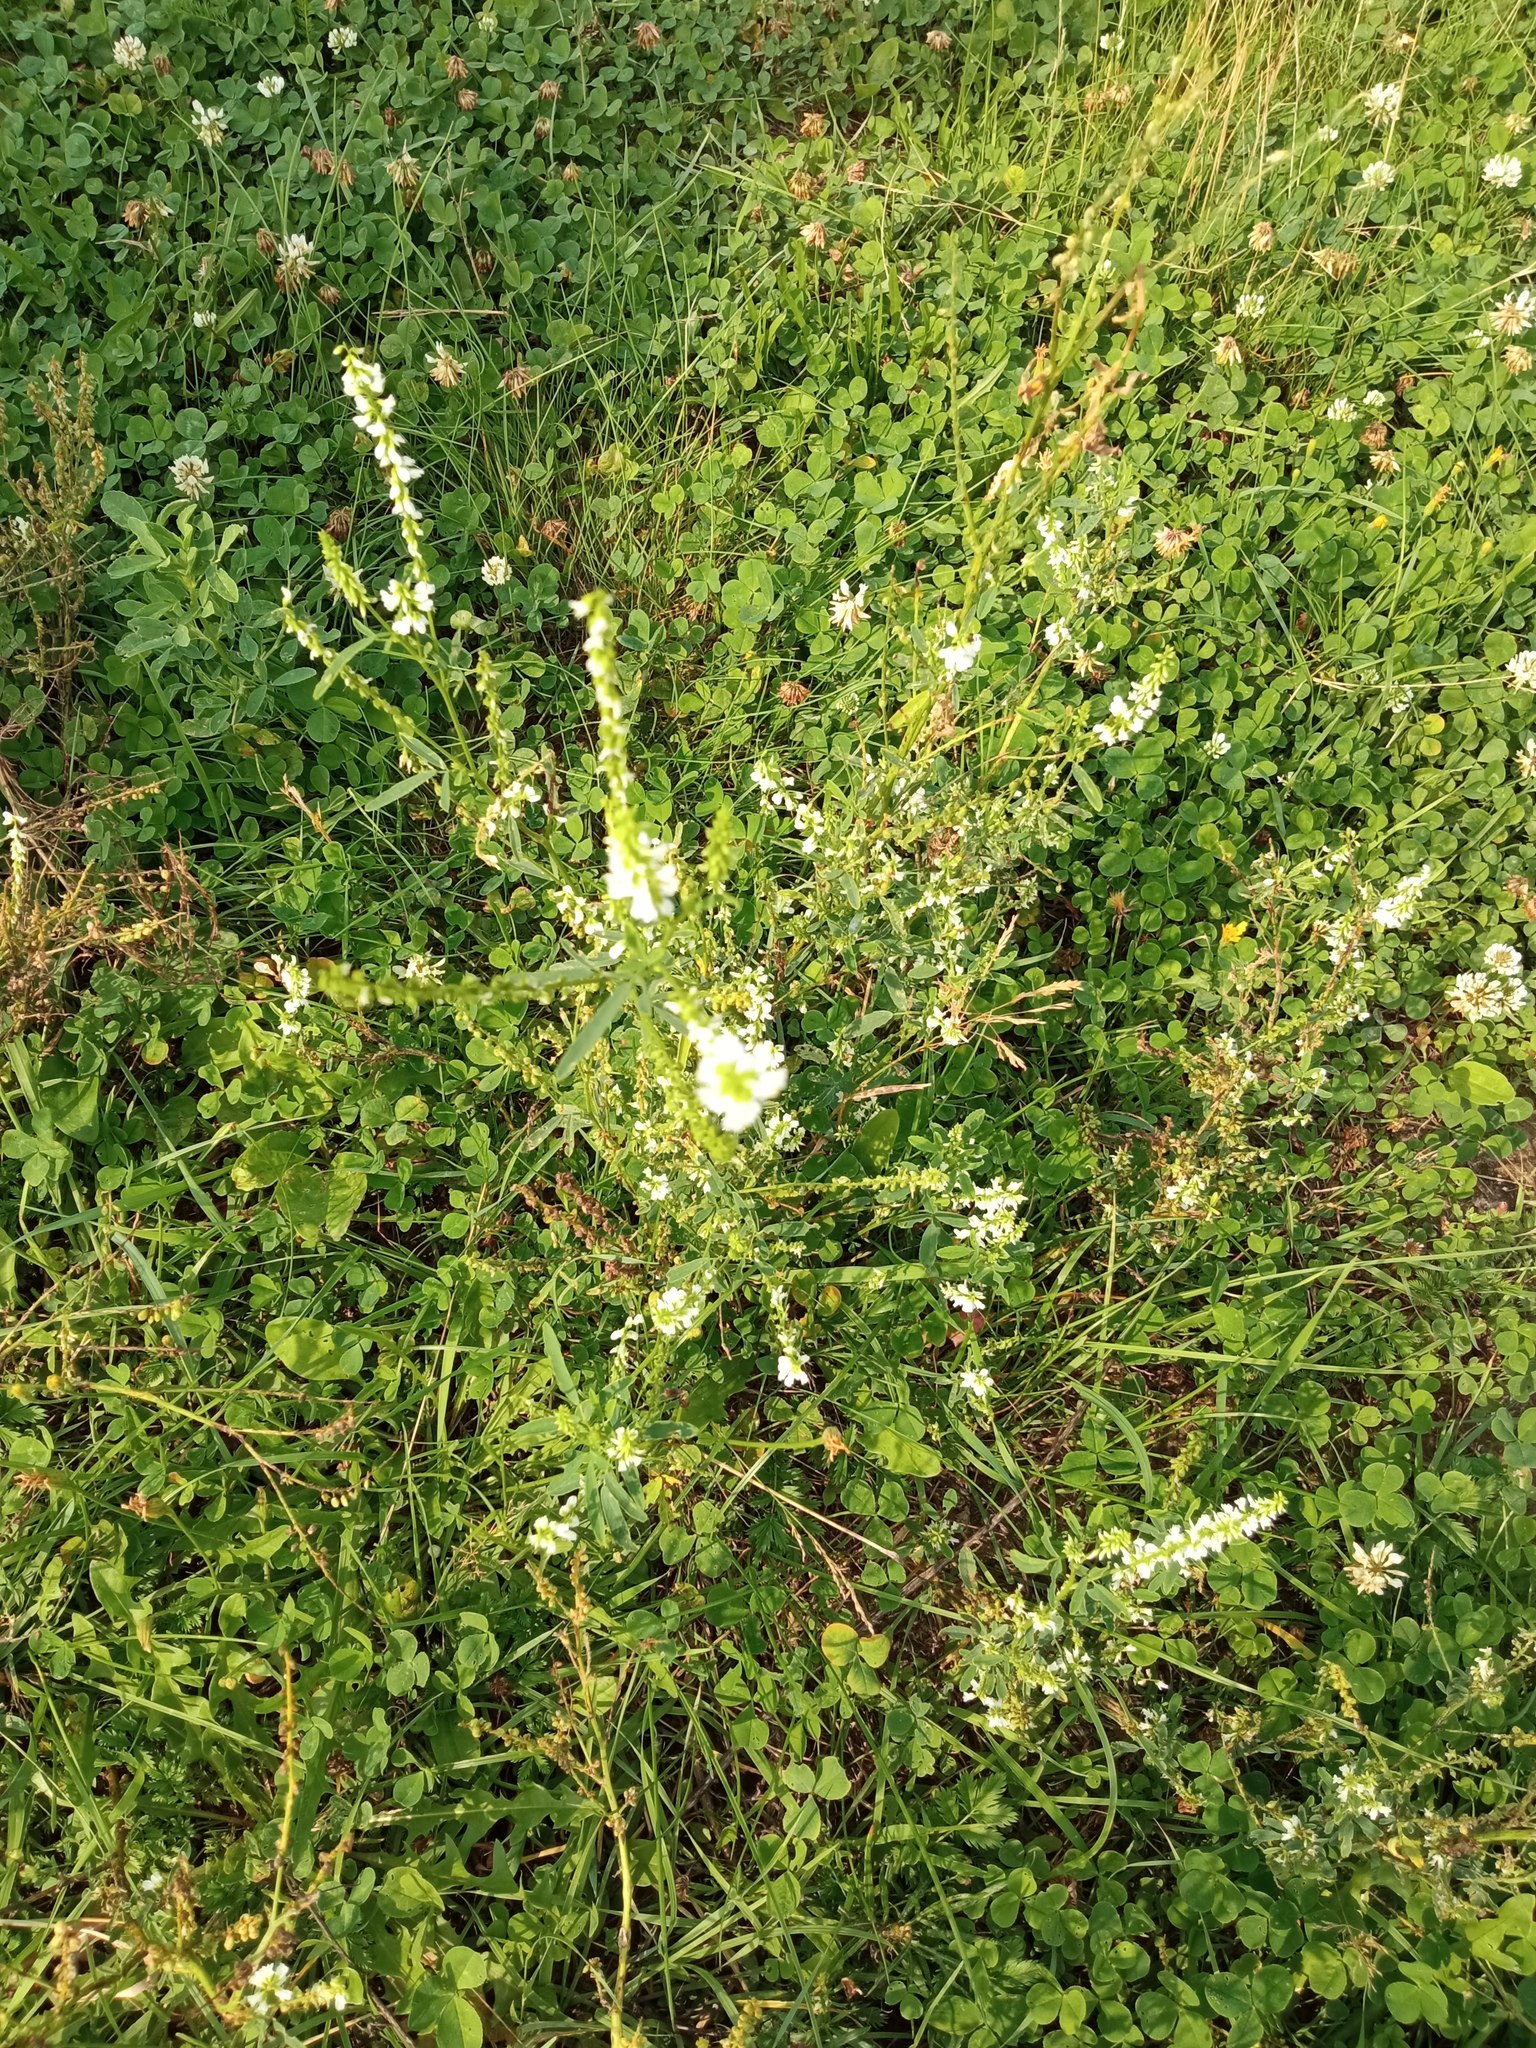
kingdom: Plantae
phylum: Tracheophyta
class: Magnoliopsida
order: Fabales
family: Fabaceae
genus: Melilotus
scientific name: Melilotus albus
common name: White melilot
